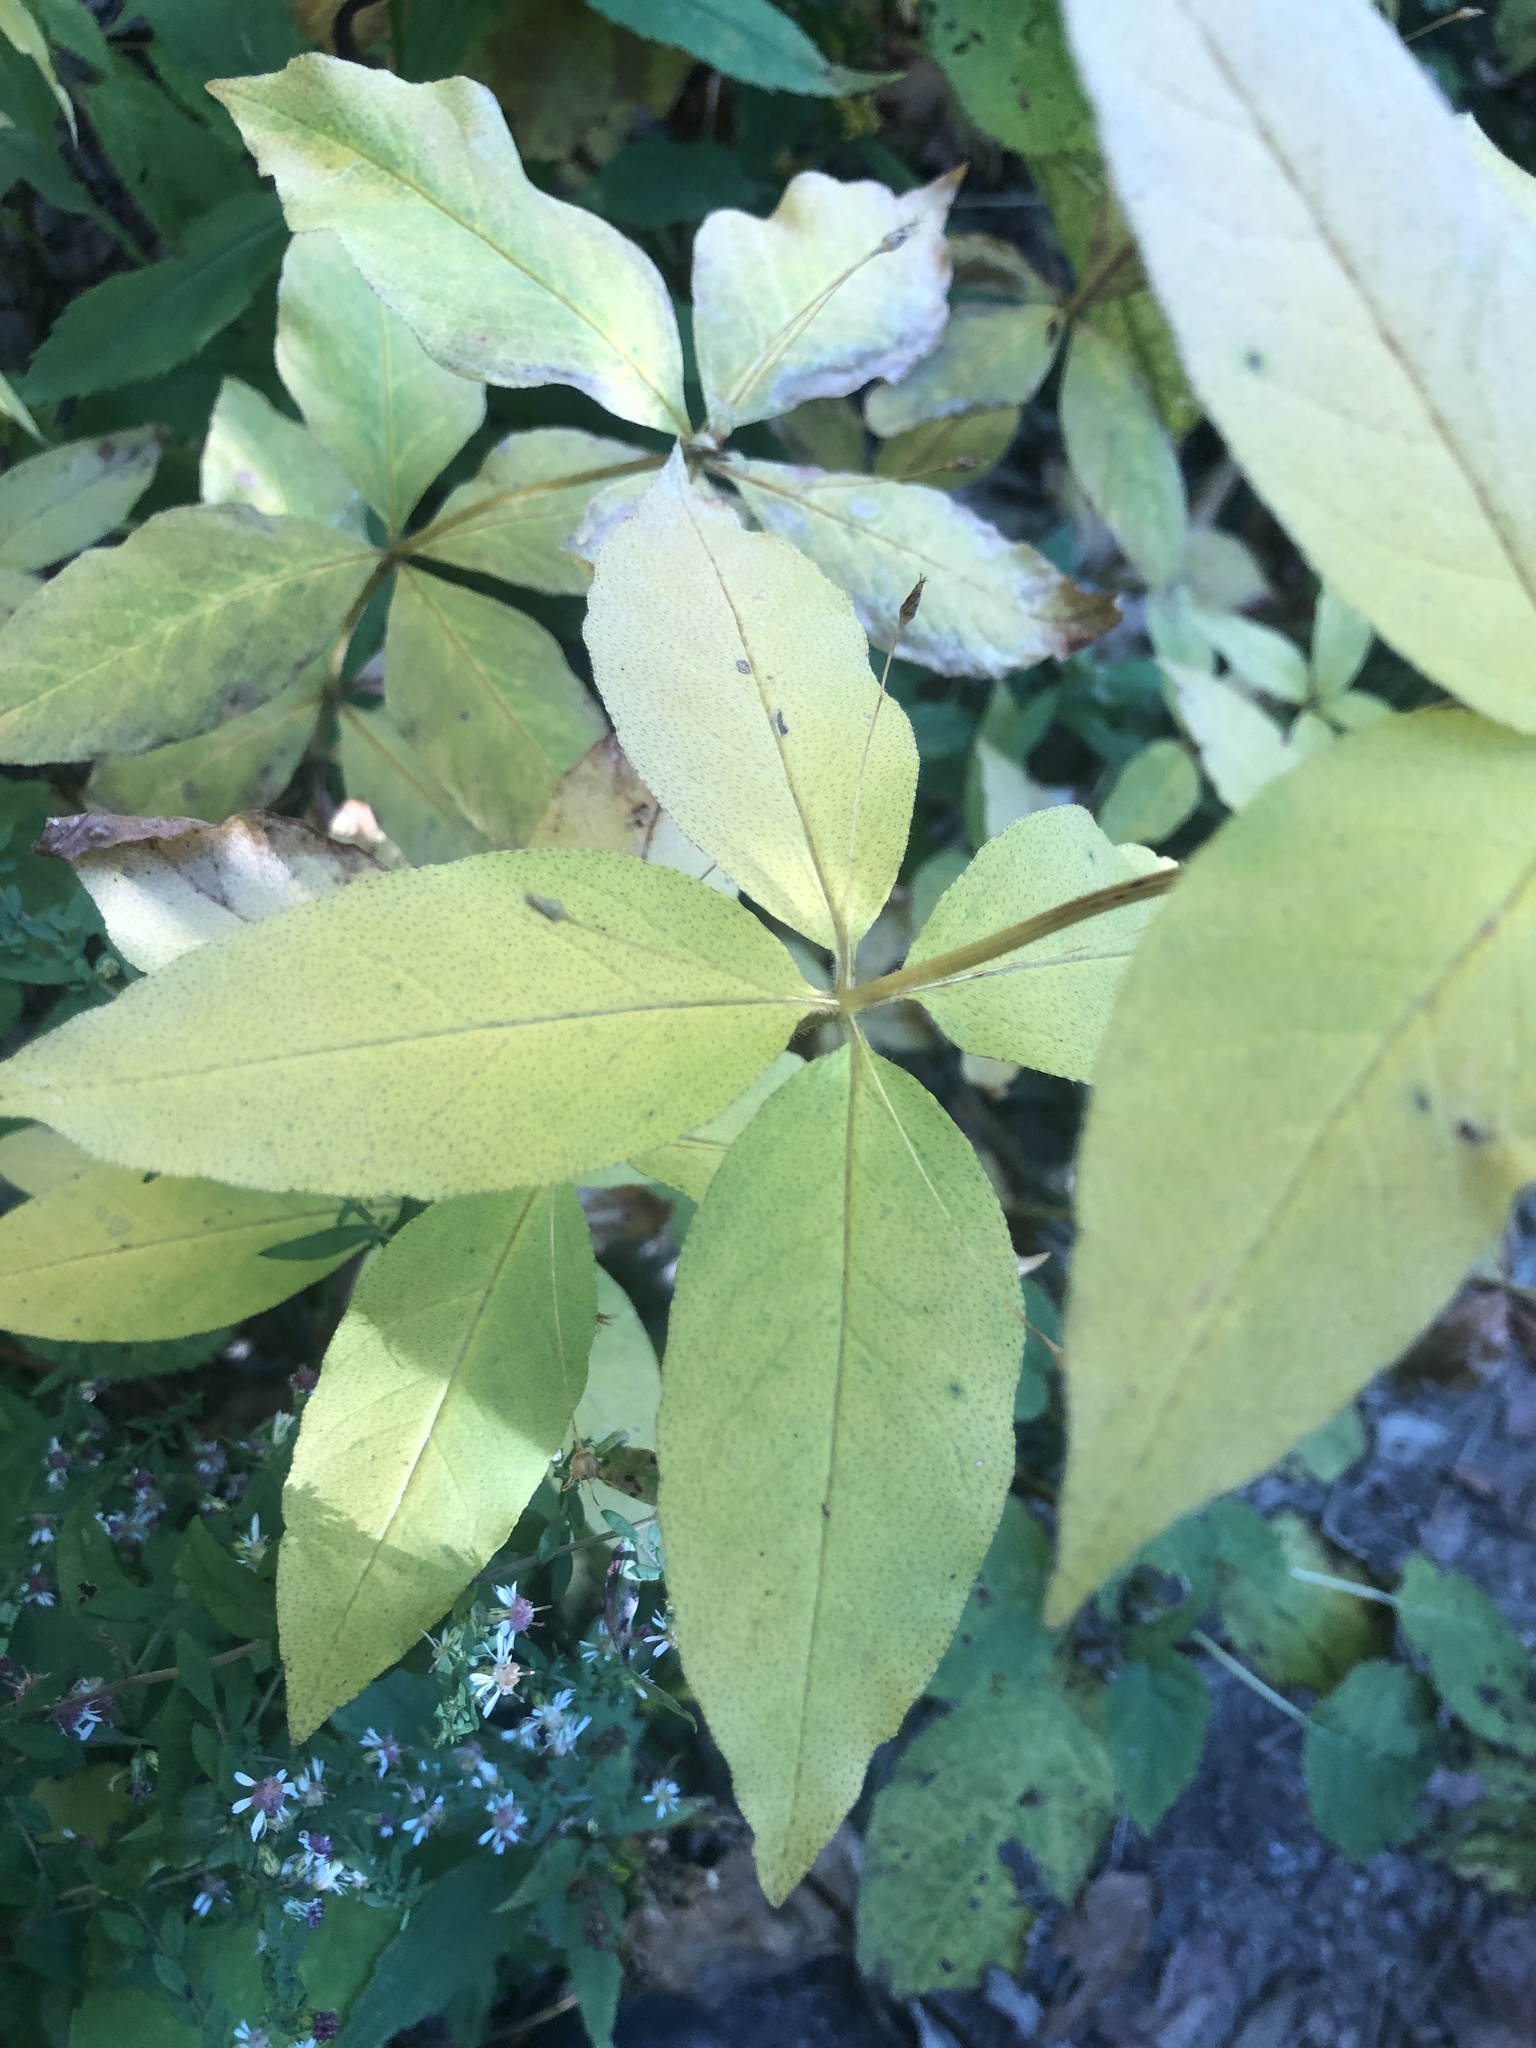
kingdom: Plantae
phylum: Tracheophyta
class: Magnoliopsida
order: Ericales
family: Primulaceae
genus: Lysimachia
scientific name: Lysimachia quadrifolia
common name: Whorled loosestrife
